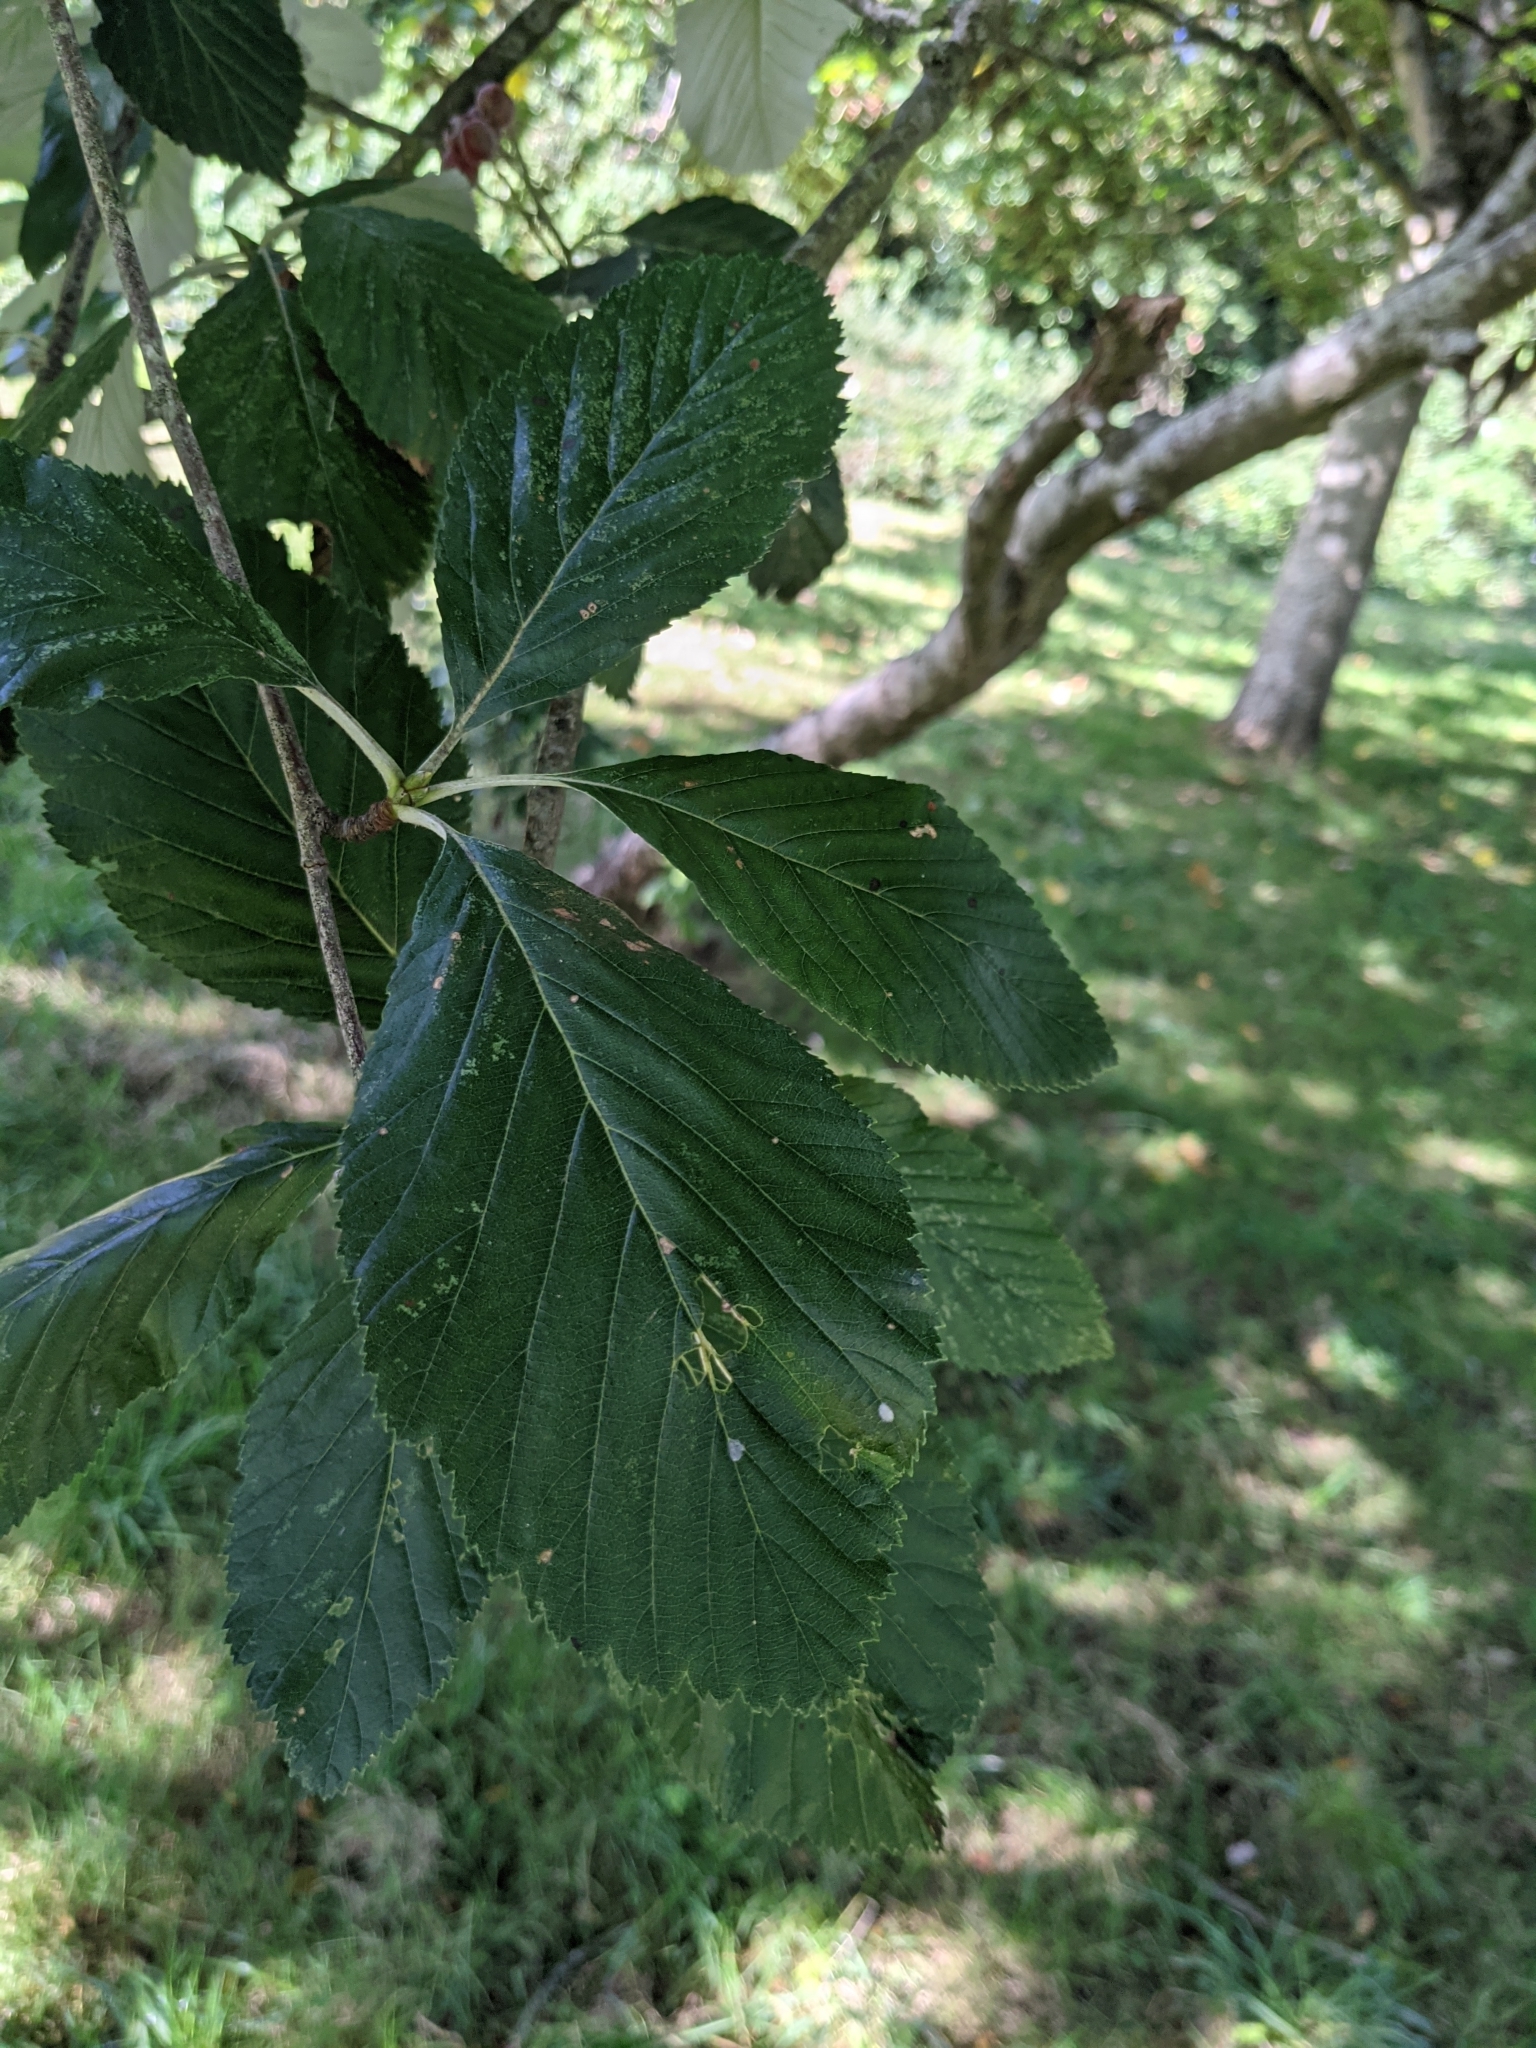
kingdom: Plantae
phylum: Tracheophyta
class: Magnoliopsida
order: Rosales
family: Rosaceae
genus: Aria
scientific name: Aria edulis
